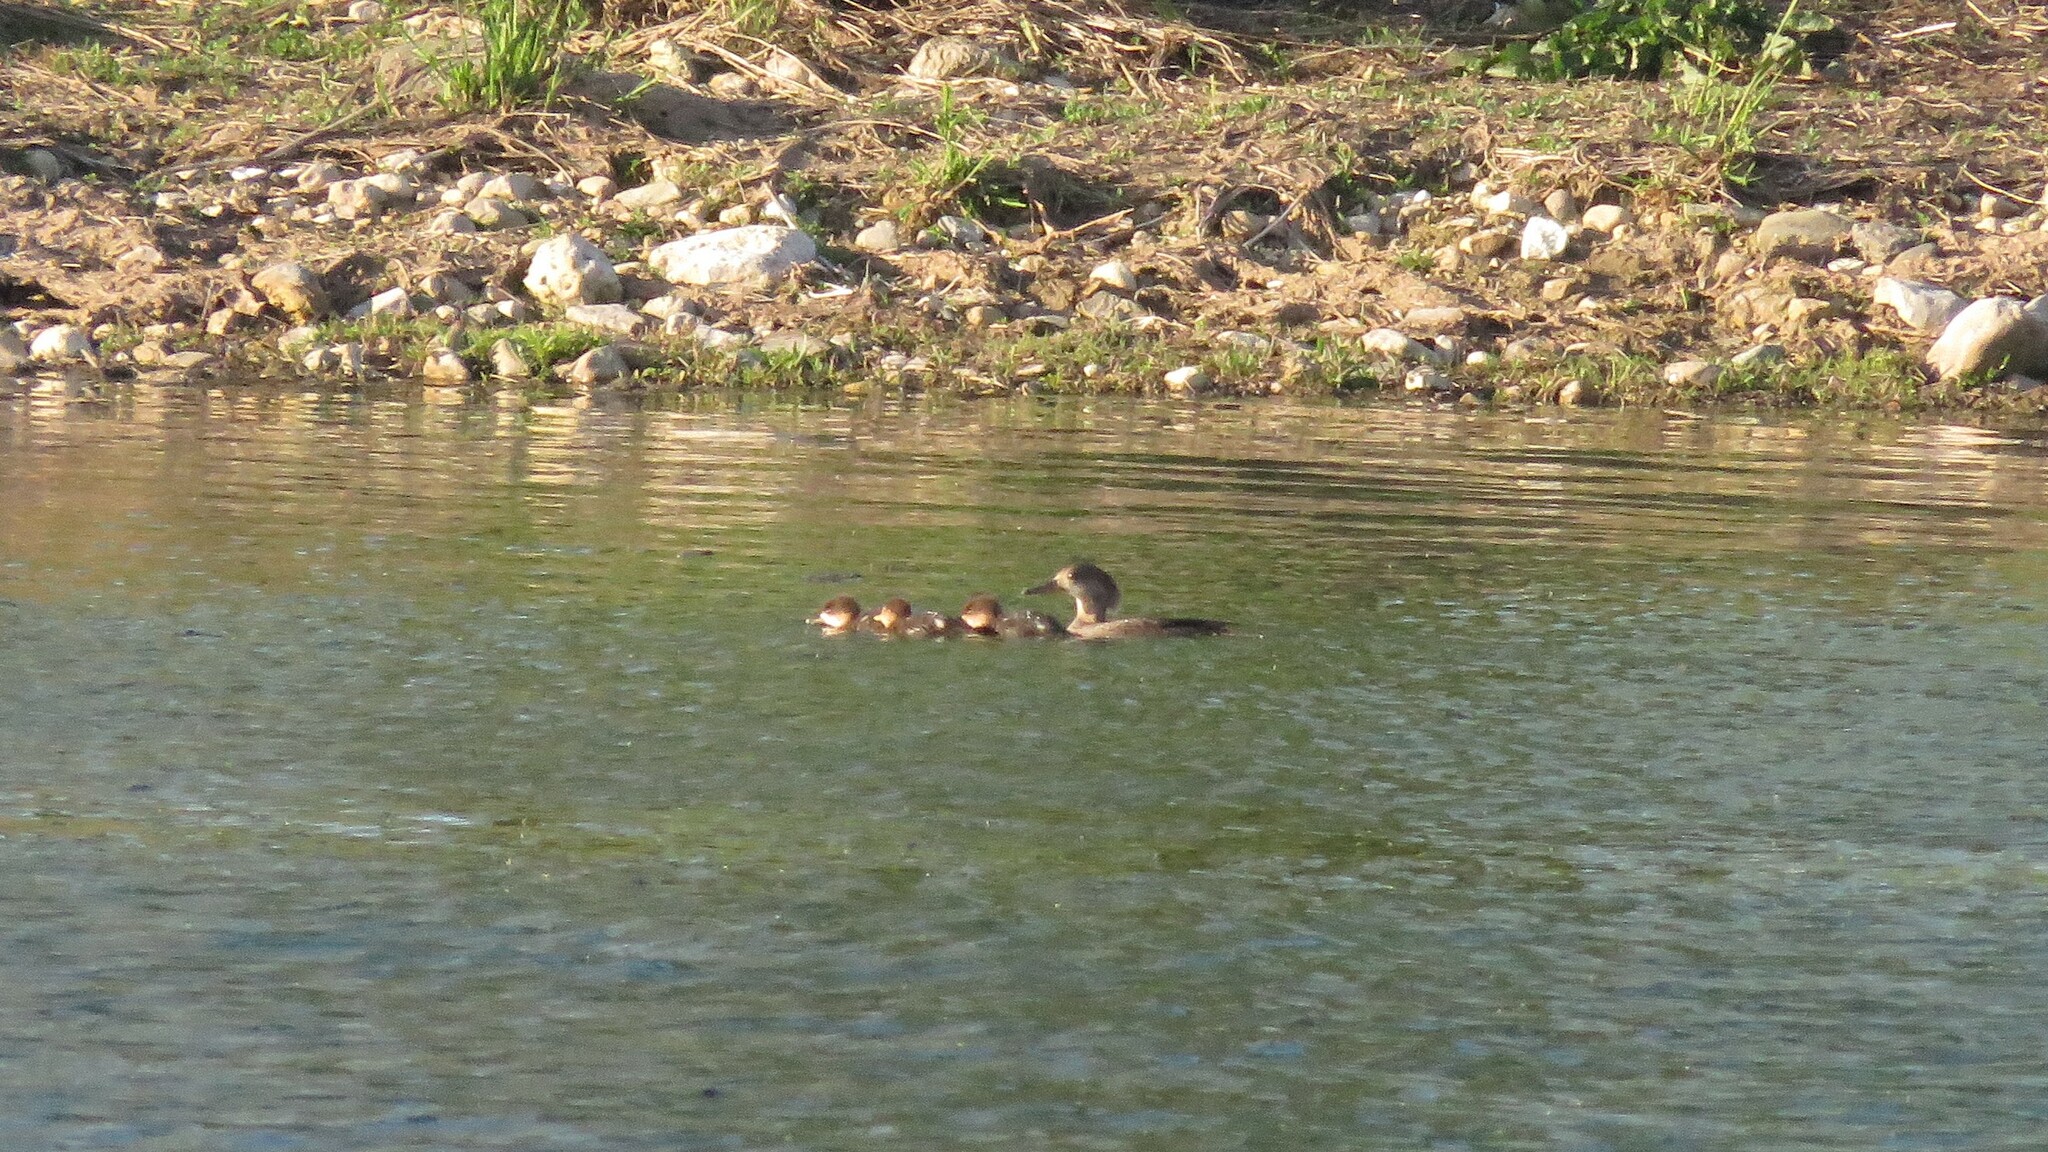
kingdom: Animalia
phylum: Chordata
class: Aves
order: Anseriformes
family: Anatidae
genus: Lophodytes
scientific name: Lophodytes cucullatus
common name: Hooded merganser
